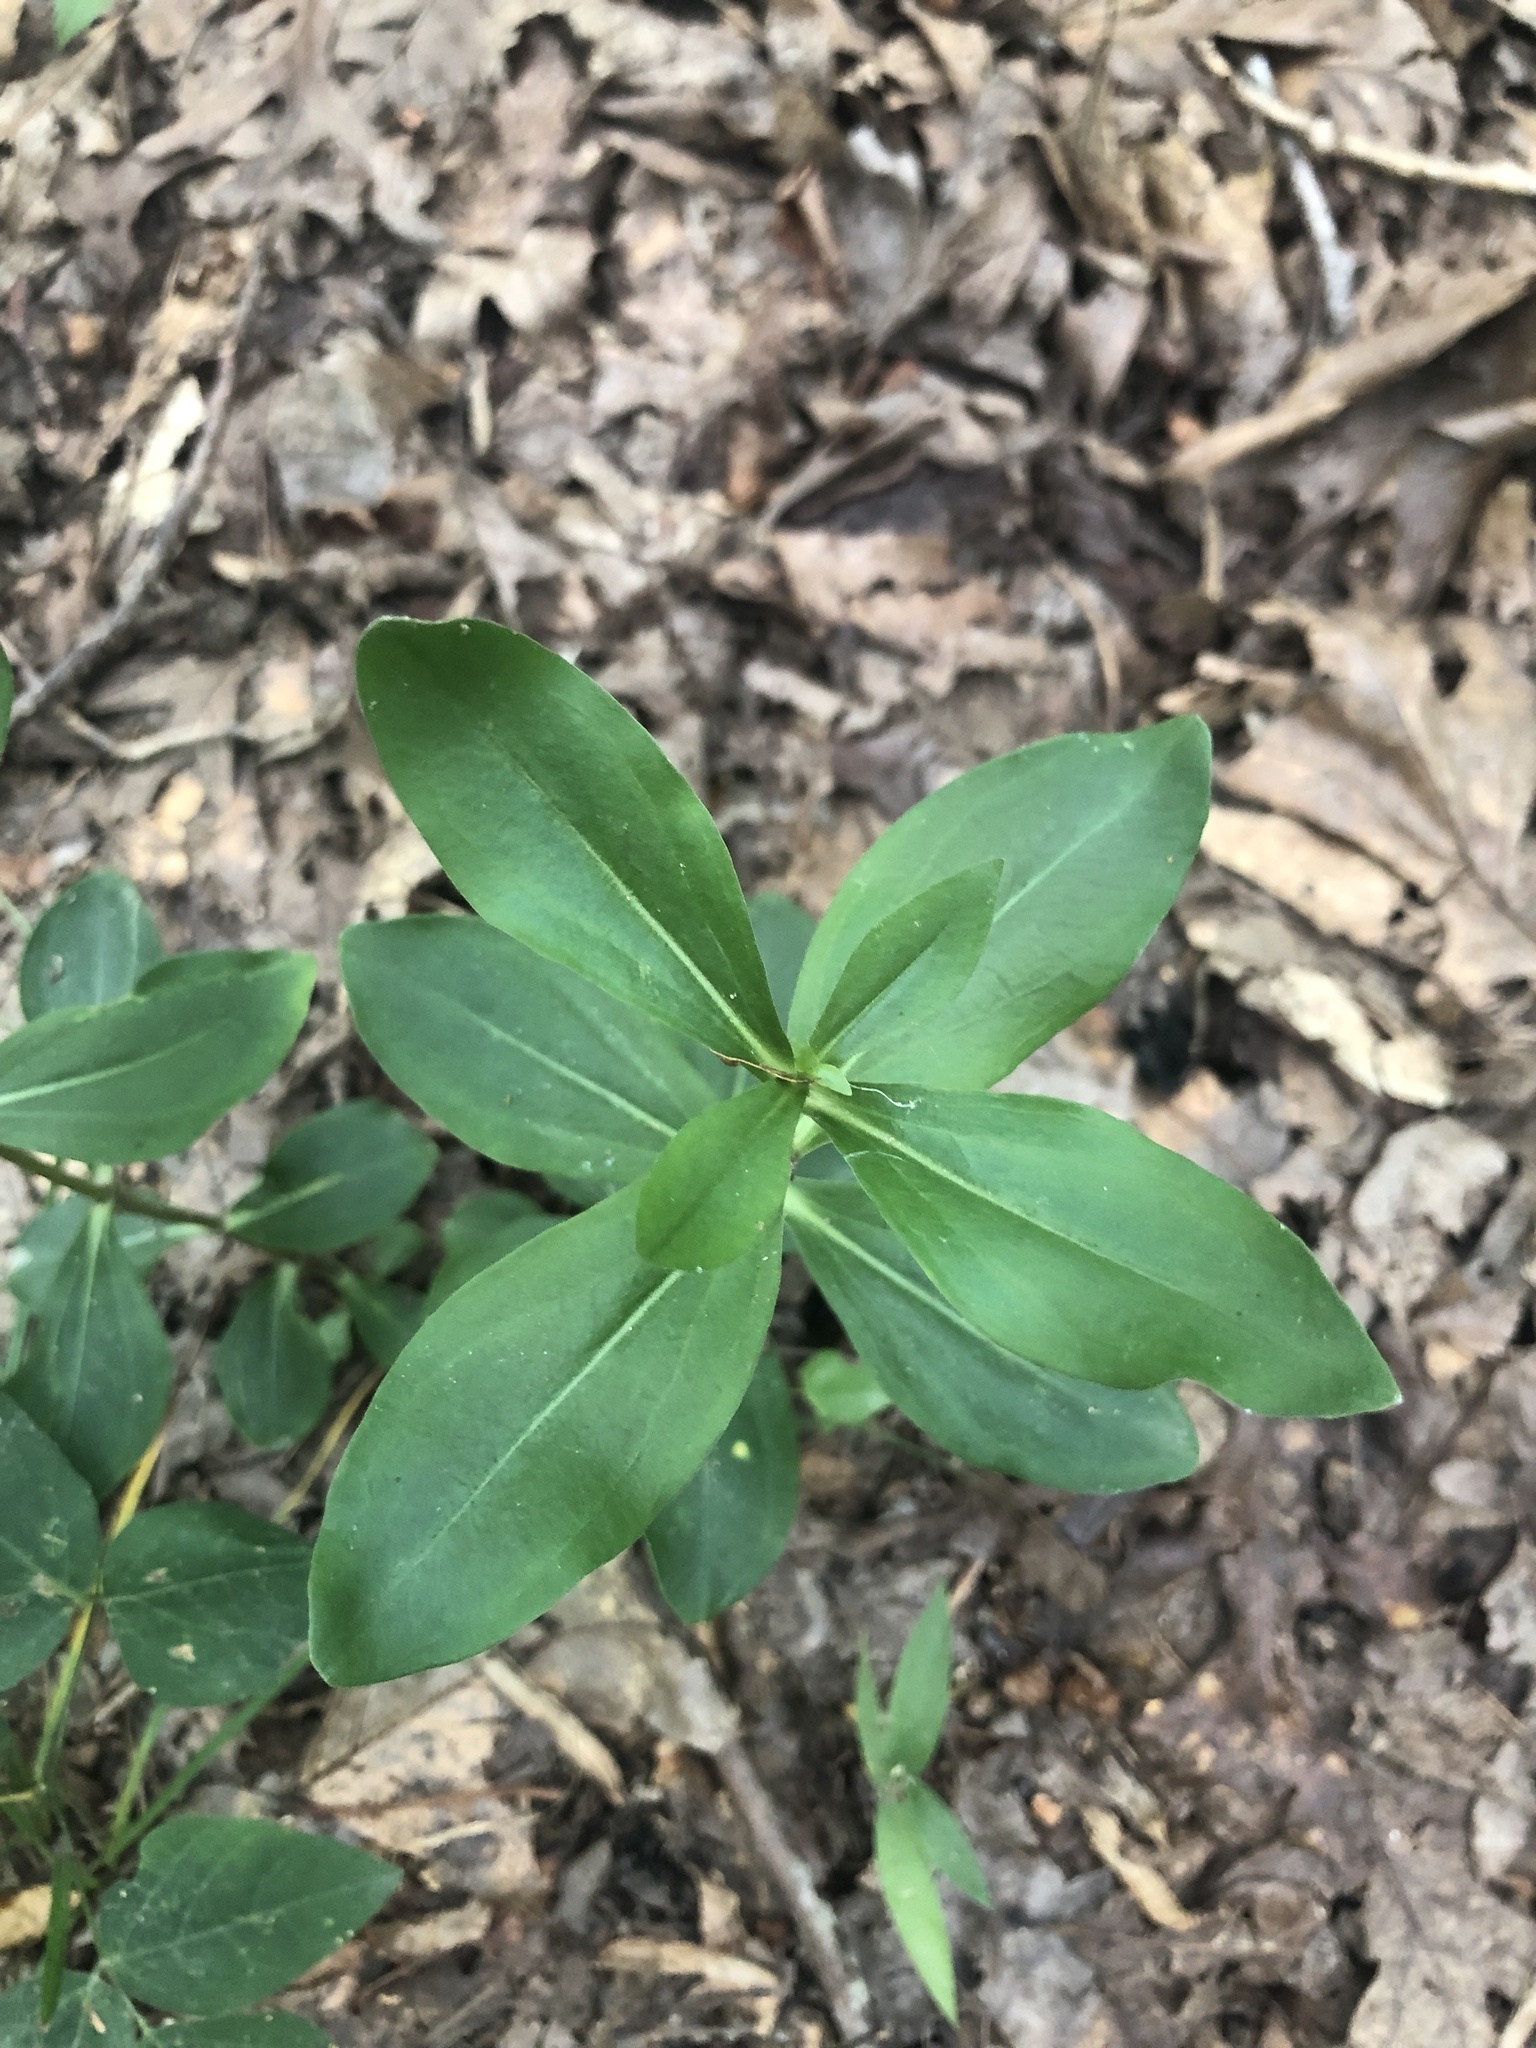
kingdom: Plantae
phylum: Tracheophyta
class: Magnoliopsida
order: Gentianales
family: Gentianaceae
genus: Gentiana
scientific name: Gentiana villosa
